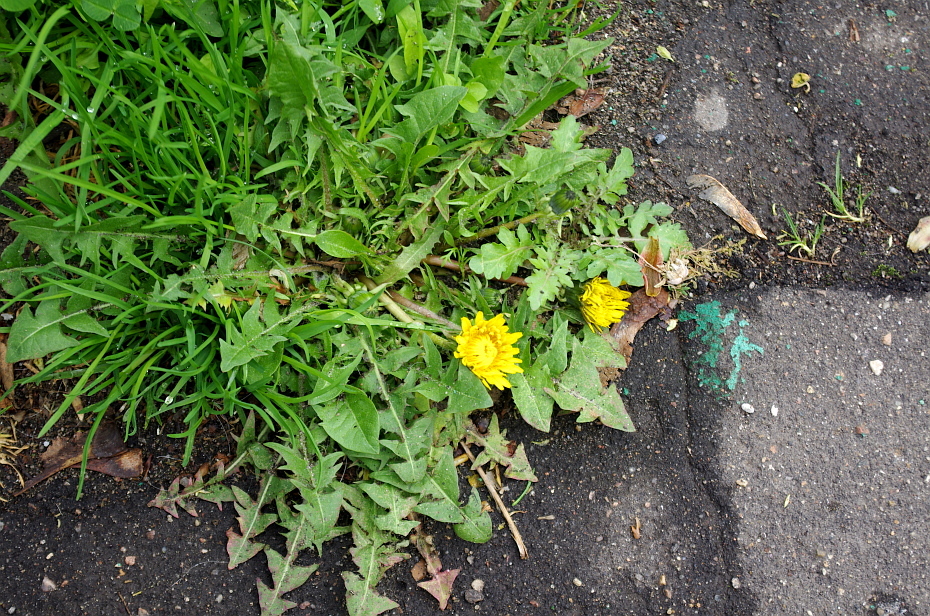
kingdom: Plantae
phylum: Tracheophyta
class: Magnoliopsida
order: Asterales
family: Asteraceae
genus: Taraxacum
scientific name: Taraxacum officinale
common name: Common dandelion
